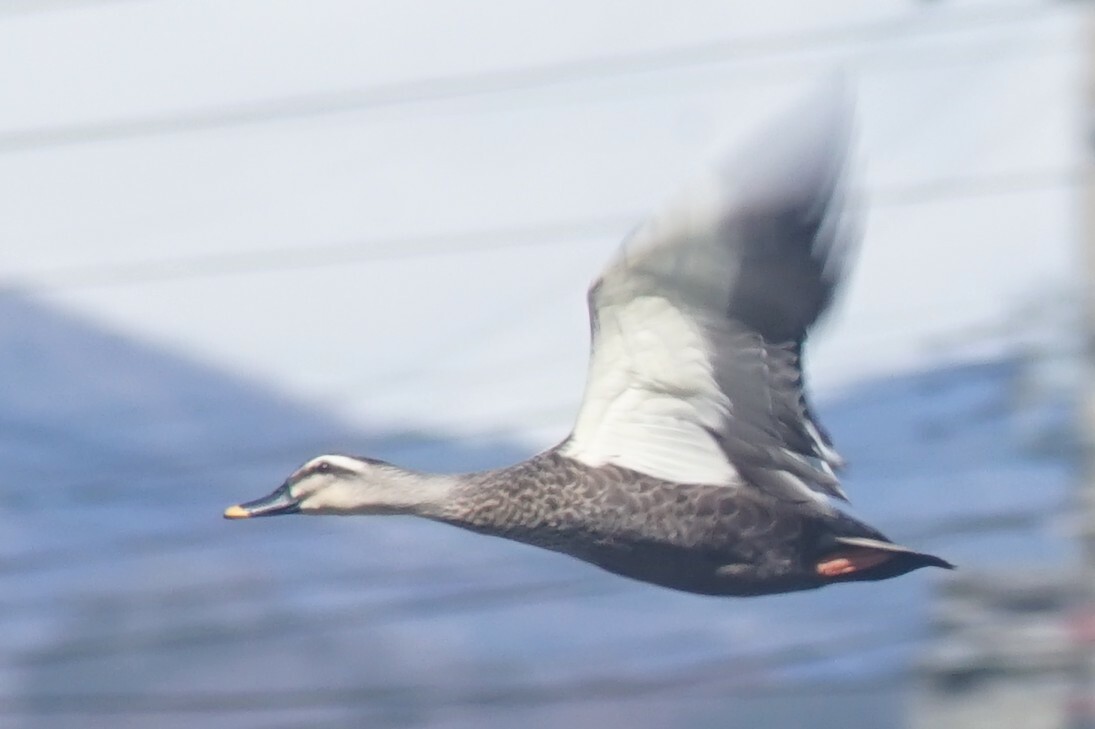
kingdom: Animalia
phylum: Chordata
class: Aves
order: Anseriformes
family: Anatidae
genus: Anas
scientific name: Anas zonorhyncha
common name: Eastern spot-billed duck
